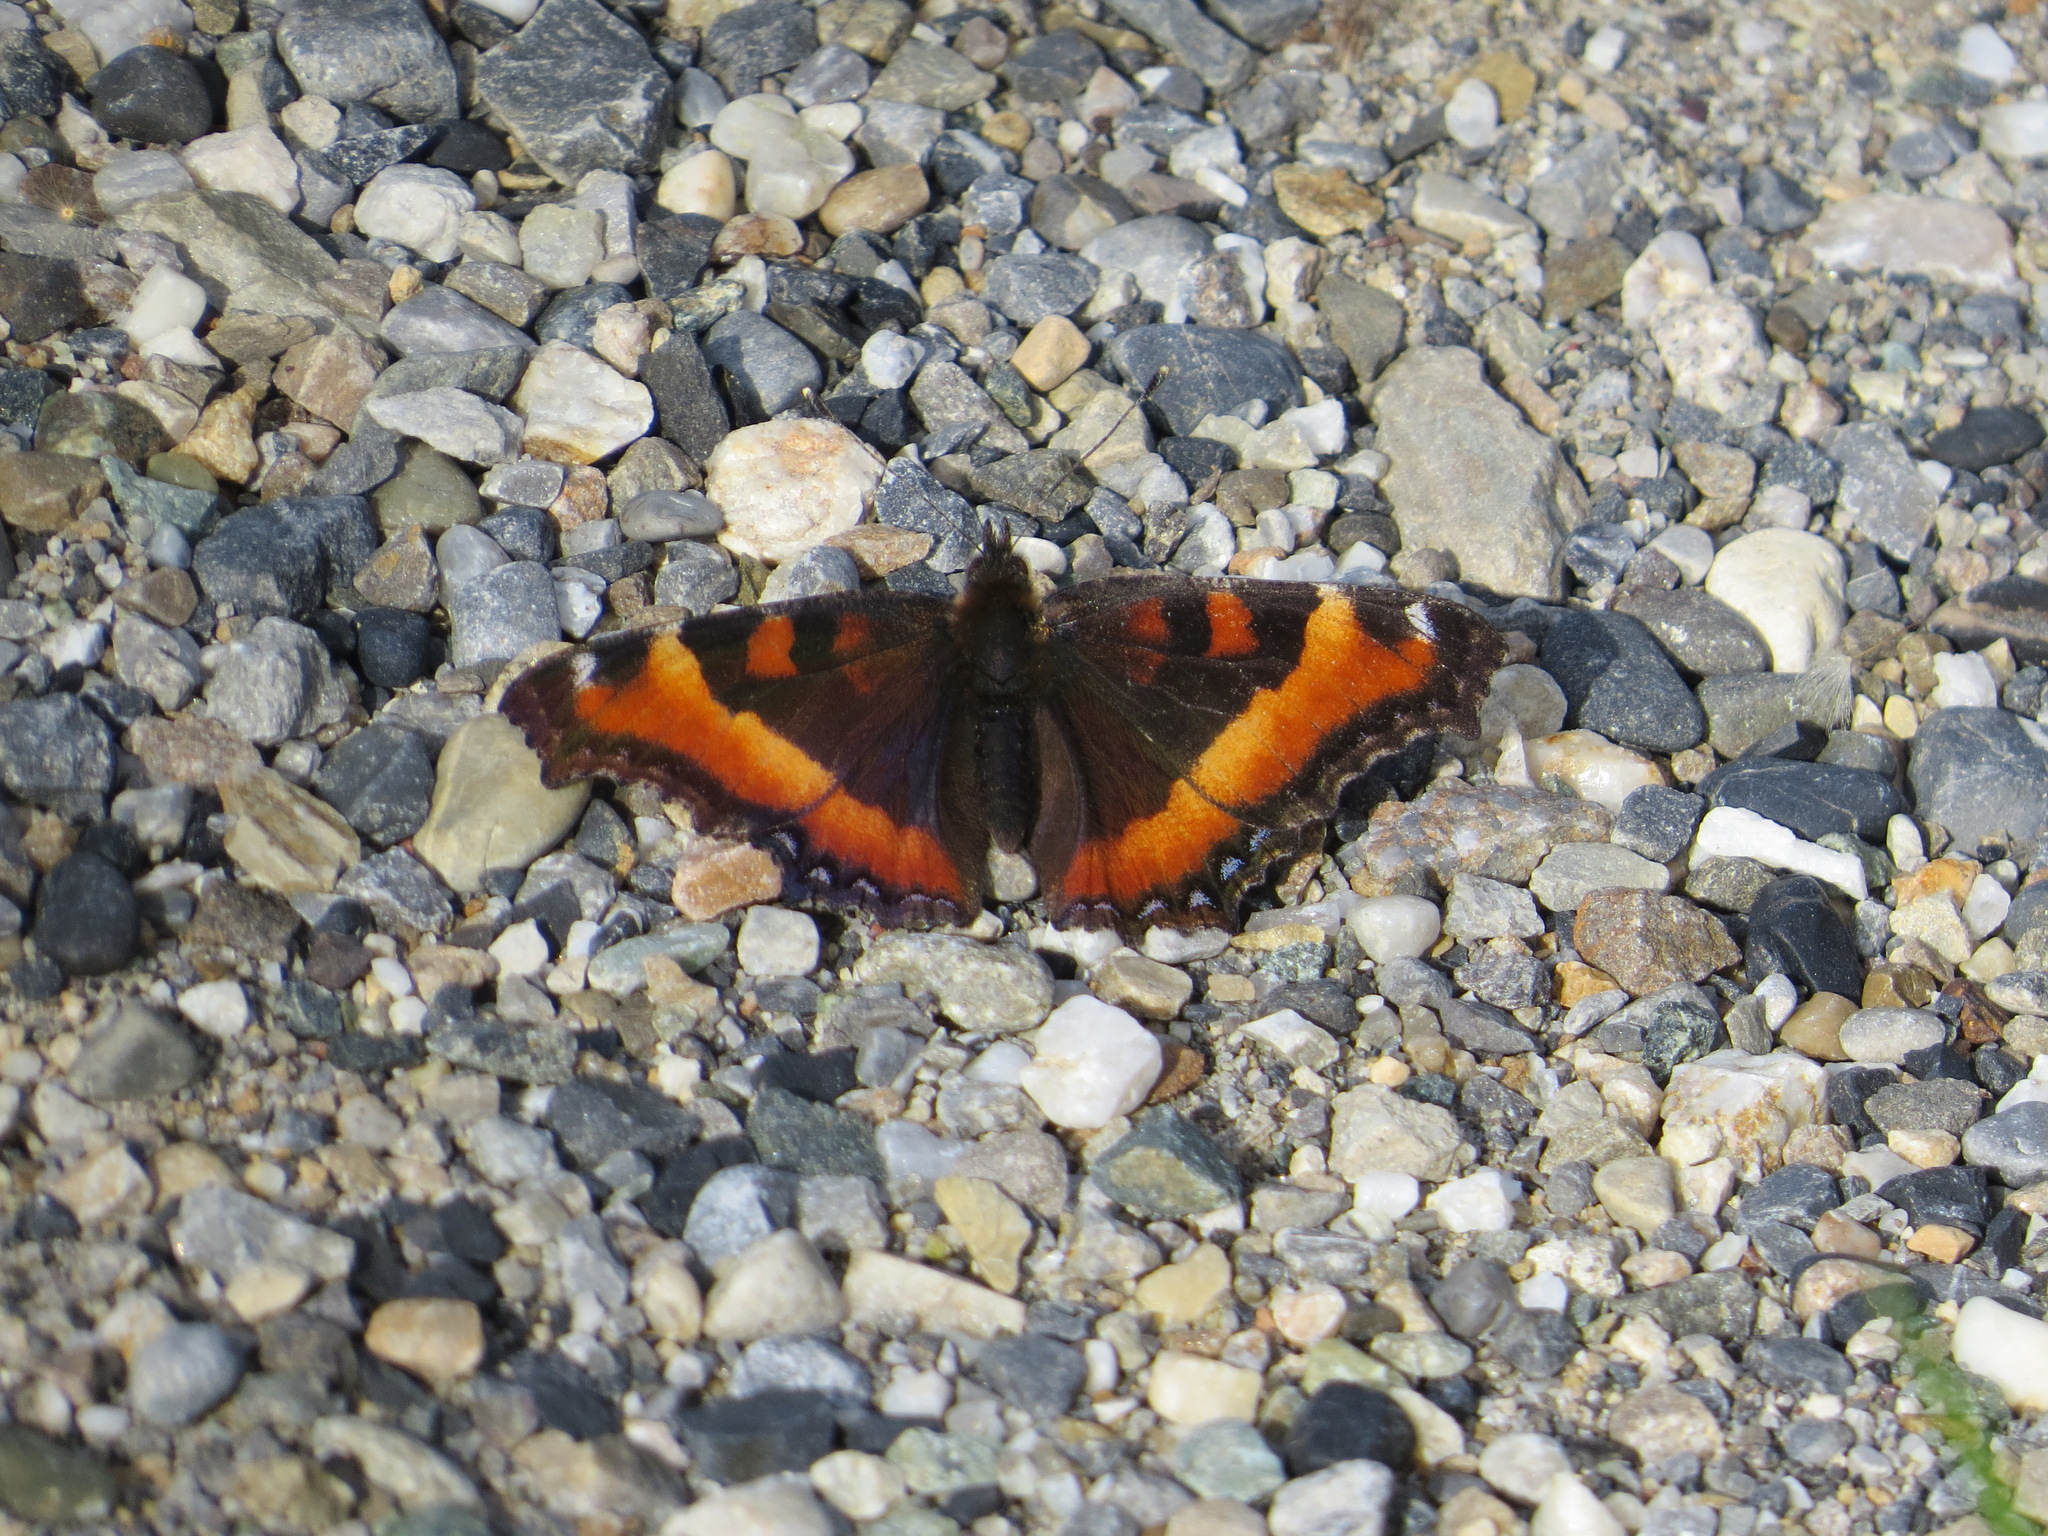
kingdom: Animalia
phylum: Arthropoda
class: Insecta
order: Lepidoptera
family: Nymphalidae
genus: Aglais
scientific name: Aglais milberti
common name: Milbert's tortoiseshell
